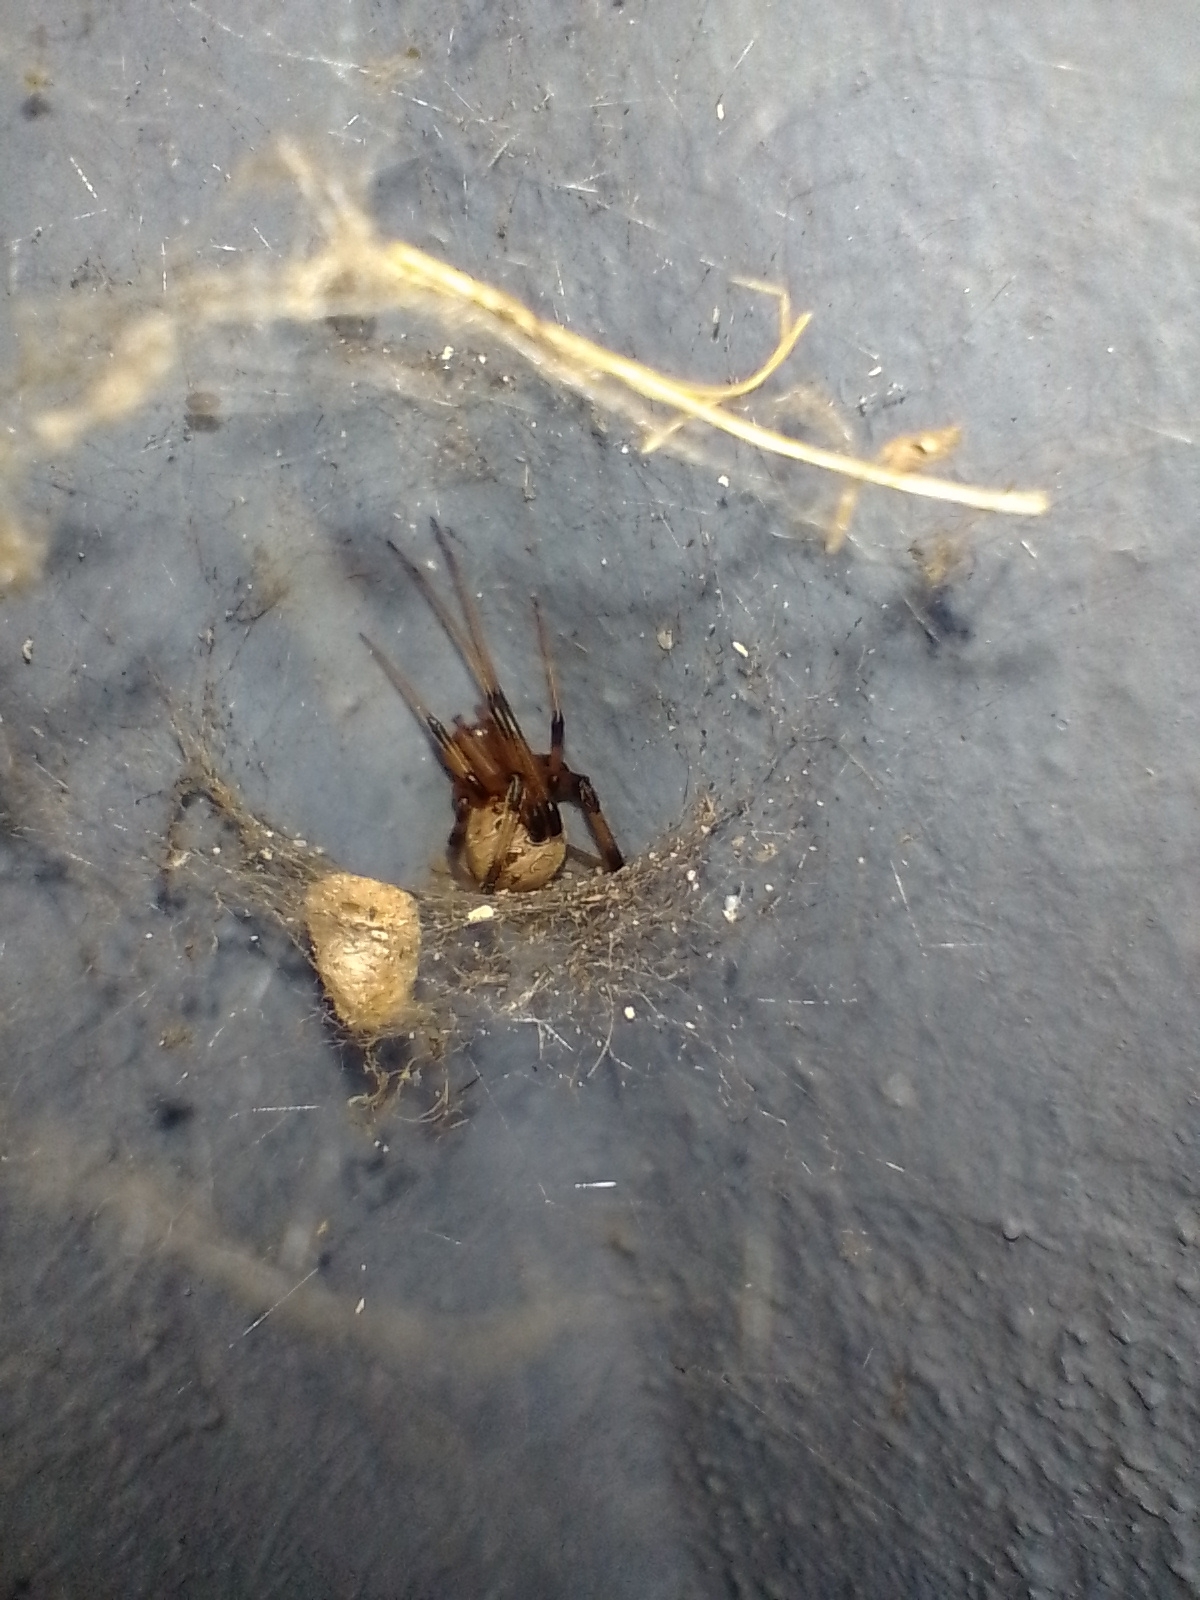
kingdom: Animalia
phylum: Arthropoda
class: Arachnida
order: Araneae
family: Theridiidae
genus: Latrodectus
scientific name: Latrodectus geometricus
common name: Brown widow spider
